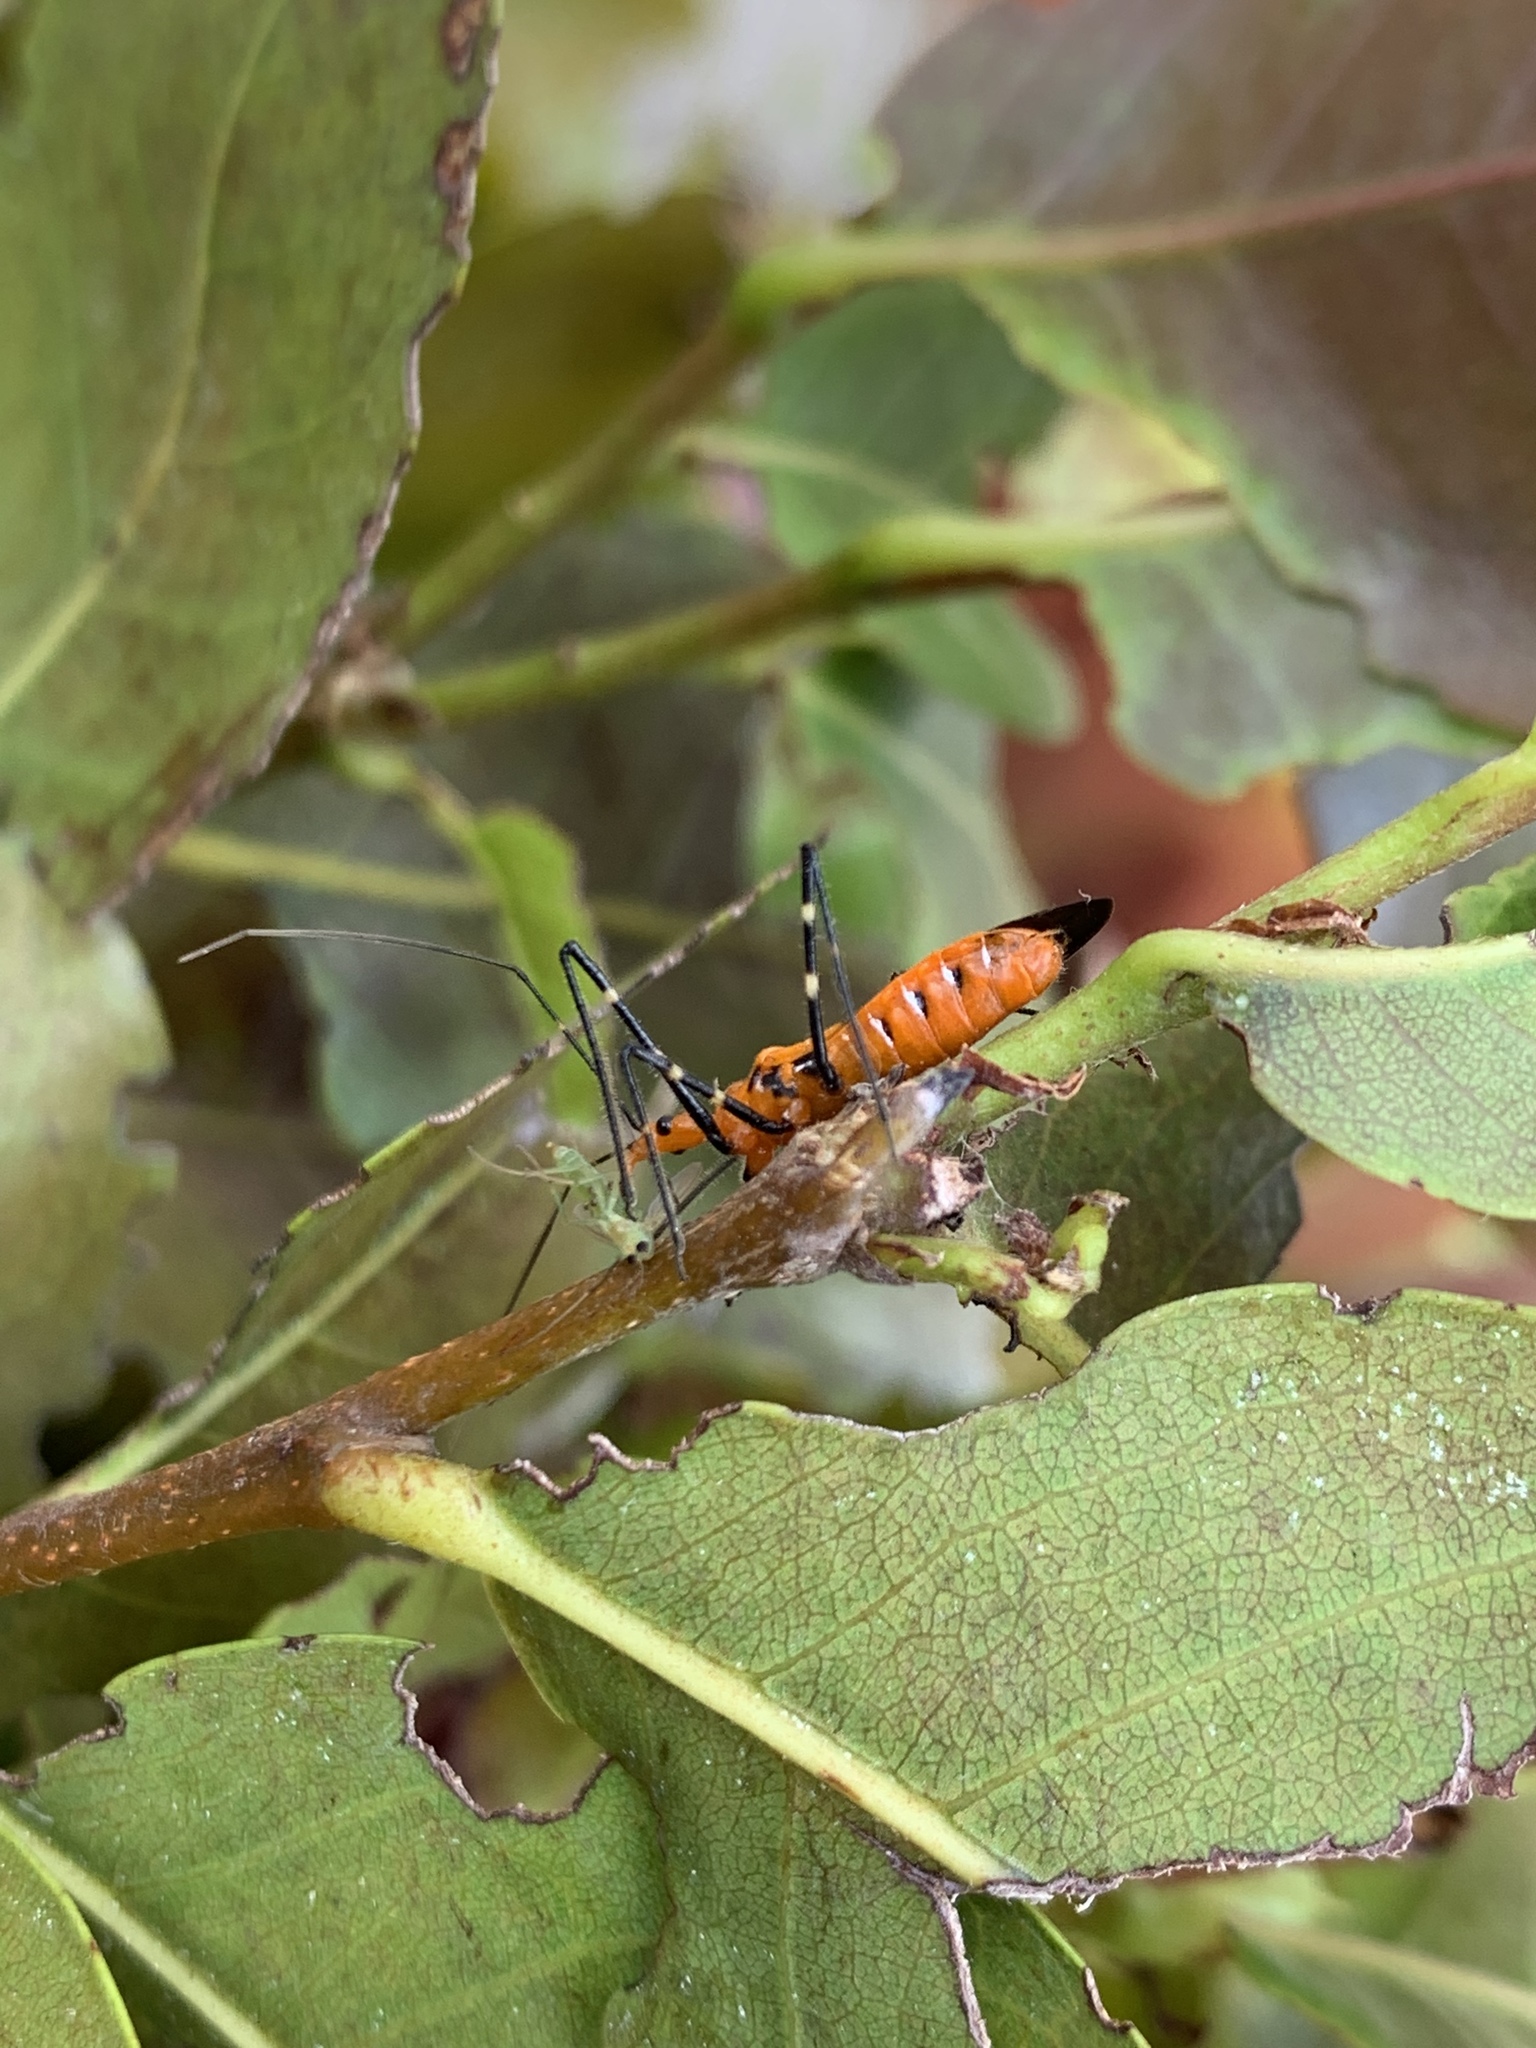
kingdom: Animalia
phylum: Arthropoda
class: Insecta
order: Hemiptera
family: Reduviidae
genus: Zelus
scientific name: Zelus longipes
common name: Milkweed assassin bug
